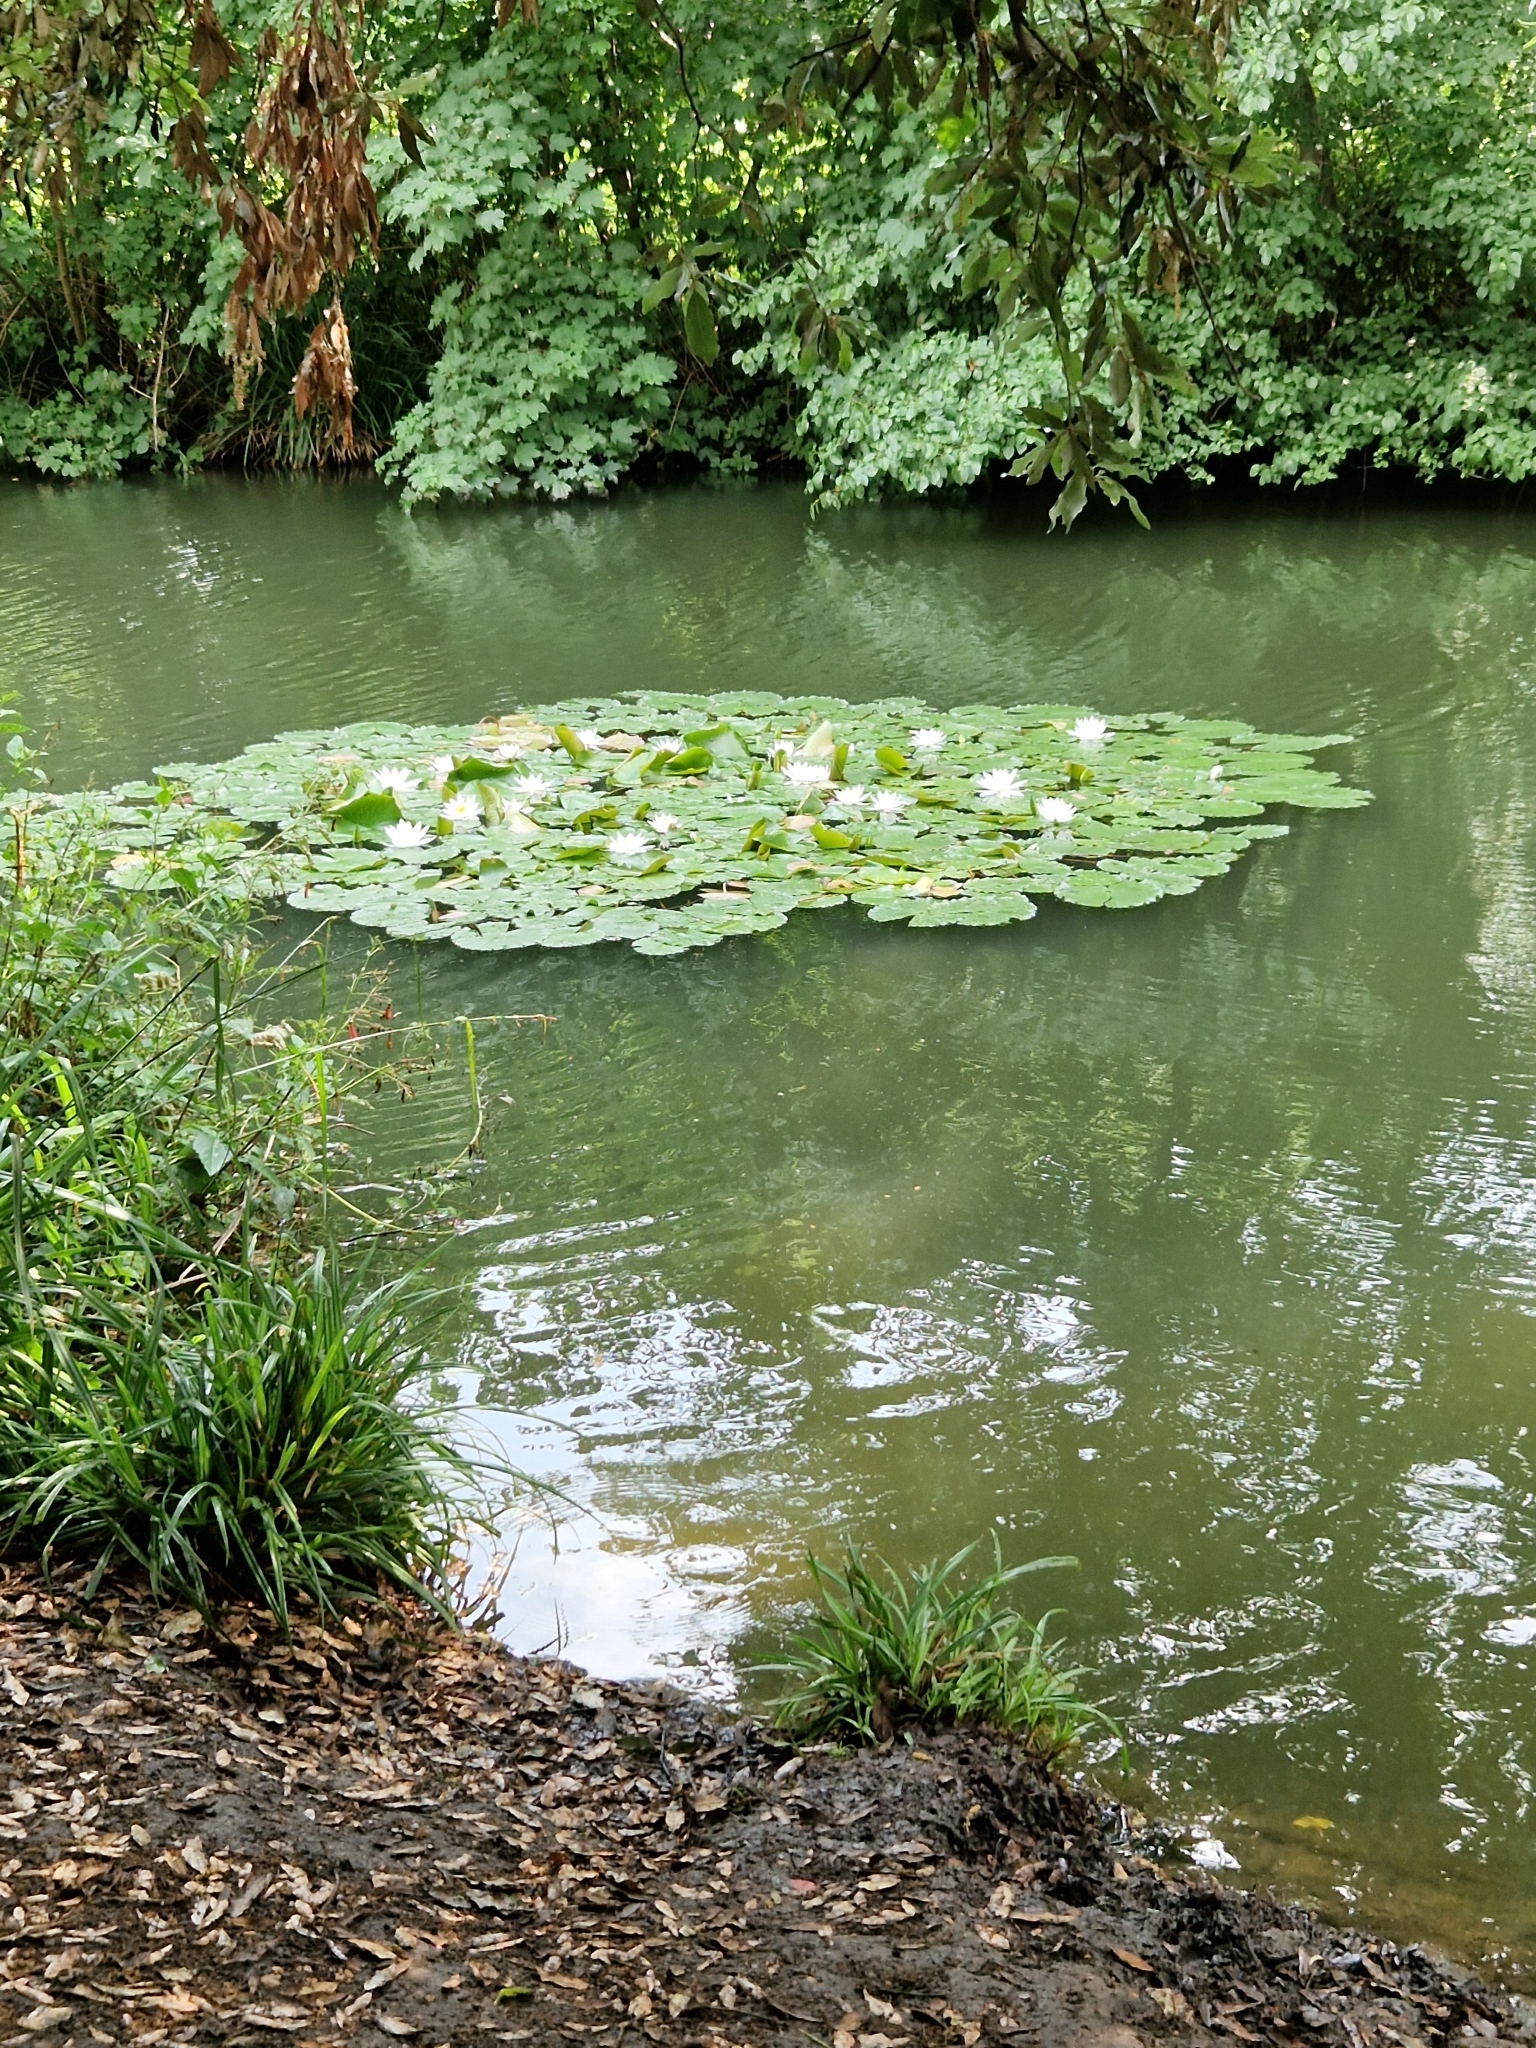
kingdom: Plantae
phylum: Tracheophyta
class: Magnoliopsida
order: Nymphaeales
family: Nymphaeaceae
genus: Nymphaea
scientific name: Nymphaea alba
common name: White water-lily
